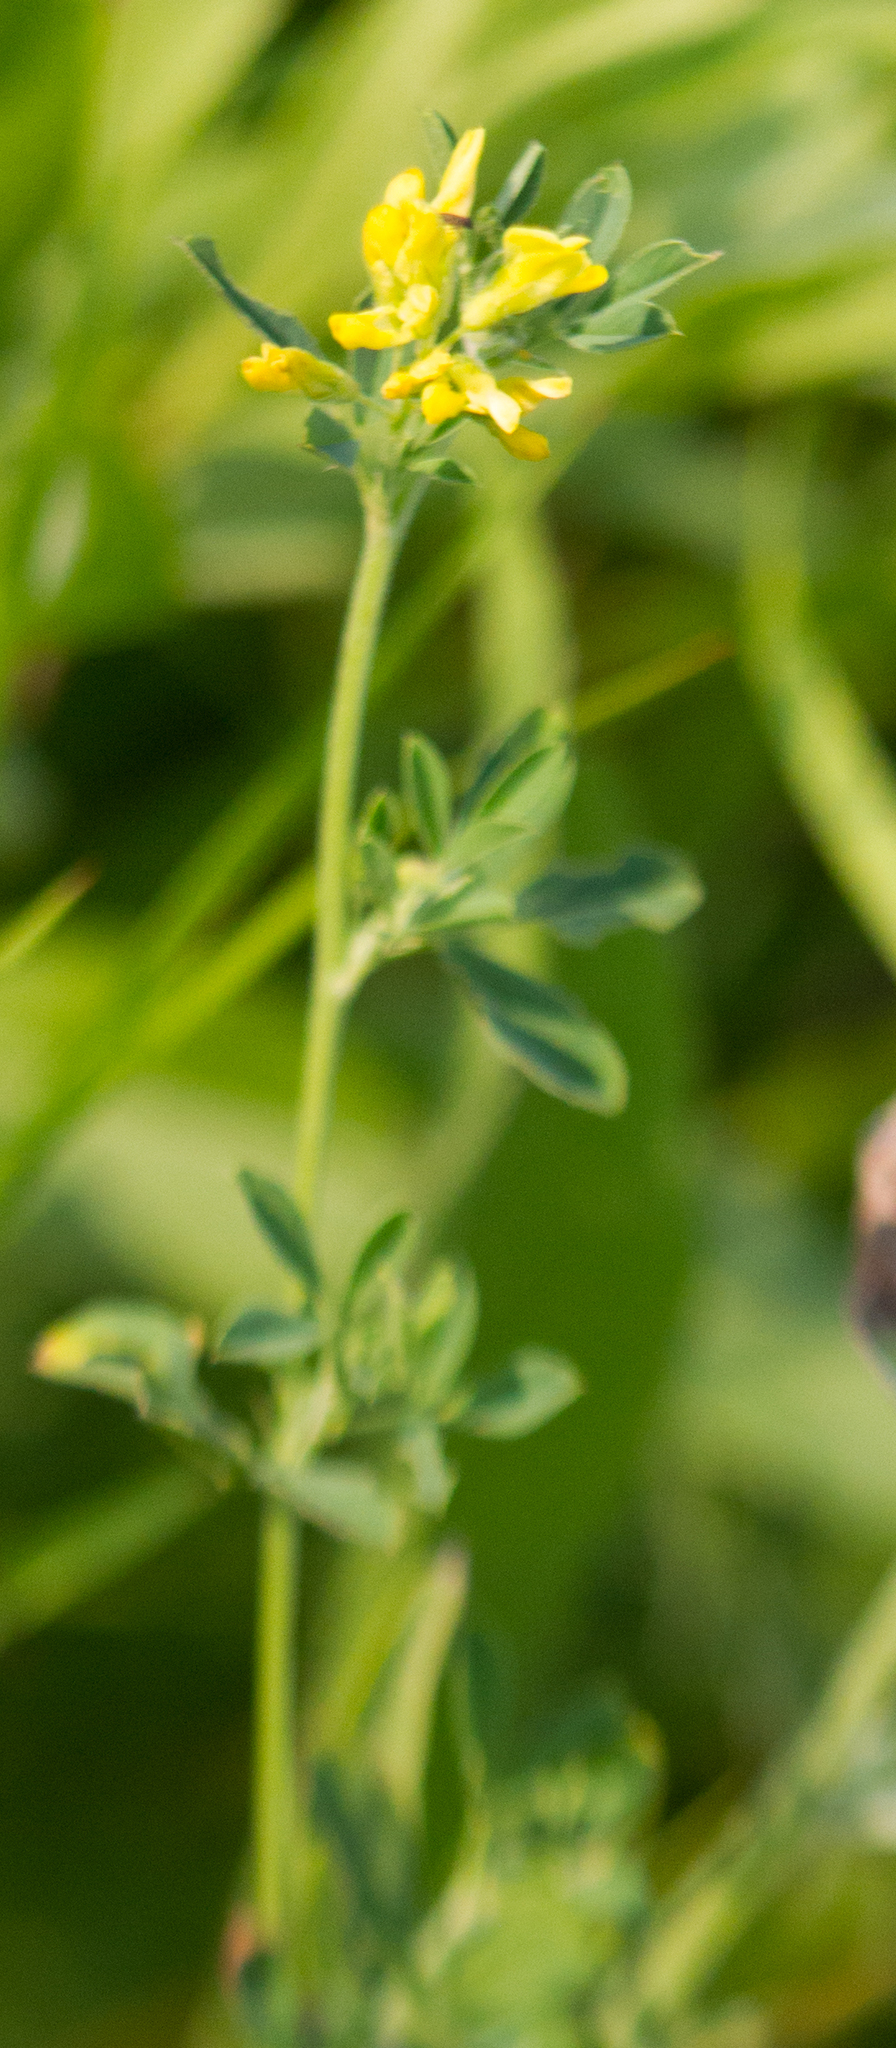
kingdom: Plantae
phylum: Tracheophyta
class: Magnoliopsida
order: Fabales
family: Fabaceae
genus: Medicago
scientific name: Medicago falcata
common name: Sickle medick
